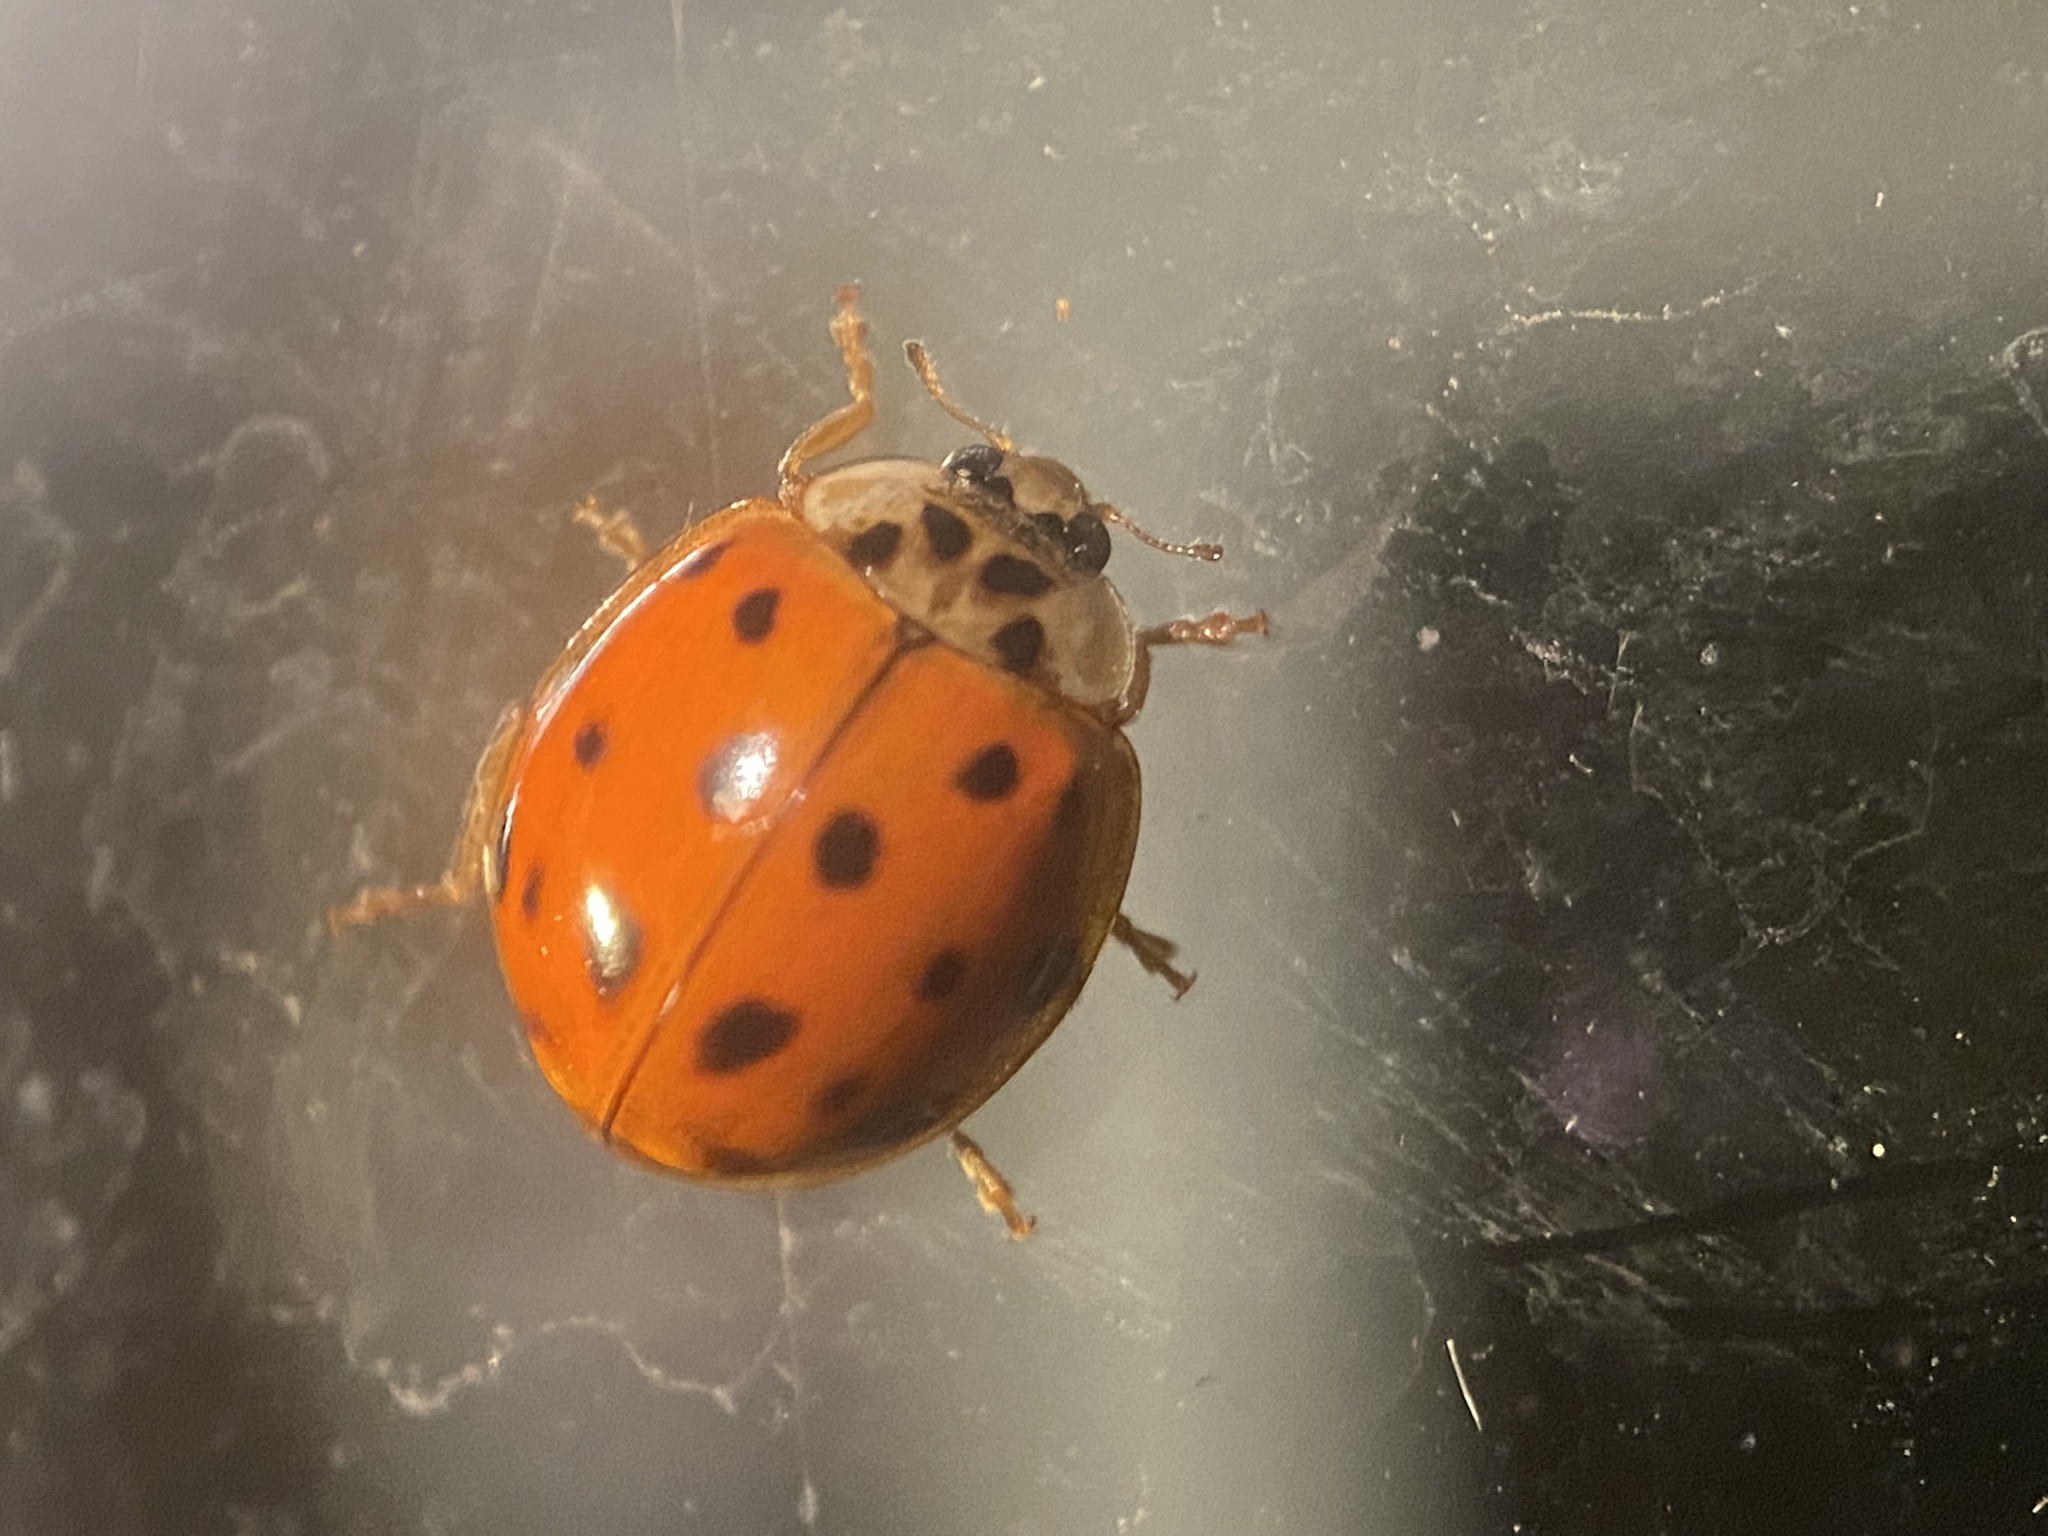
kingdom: Animalia
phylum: Arthropoda
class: Insecta
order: Coleoptera
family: Coccinellidae
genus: Harmonia
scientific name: Harmonia axyridis
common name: Harlequin ladybird
